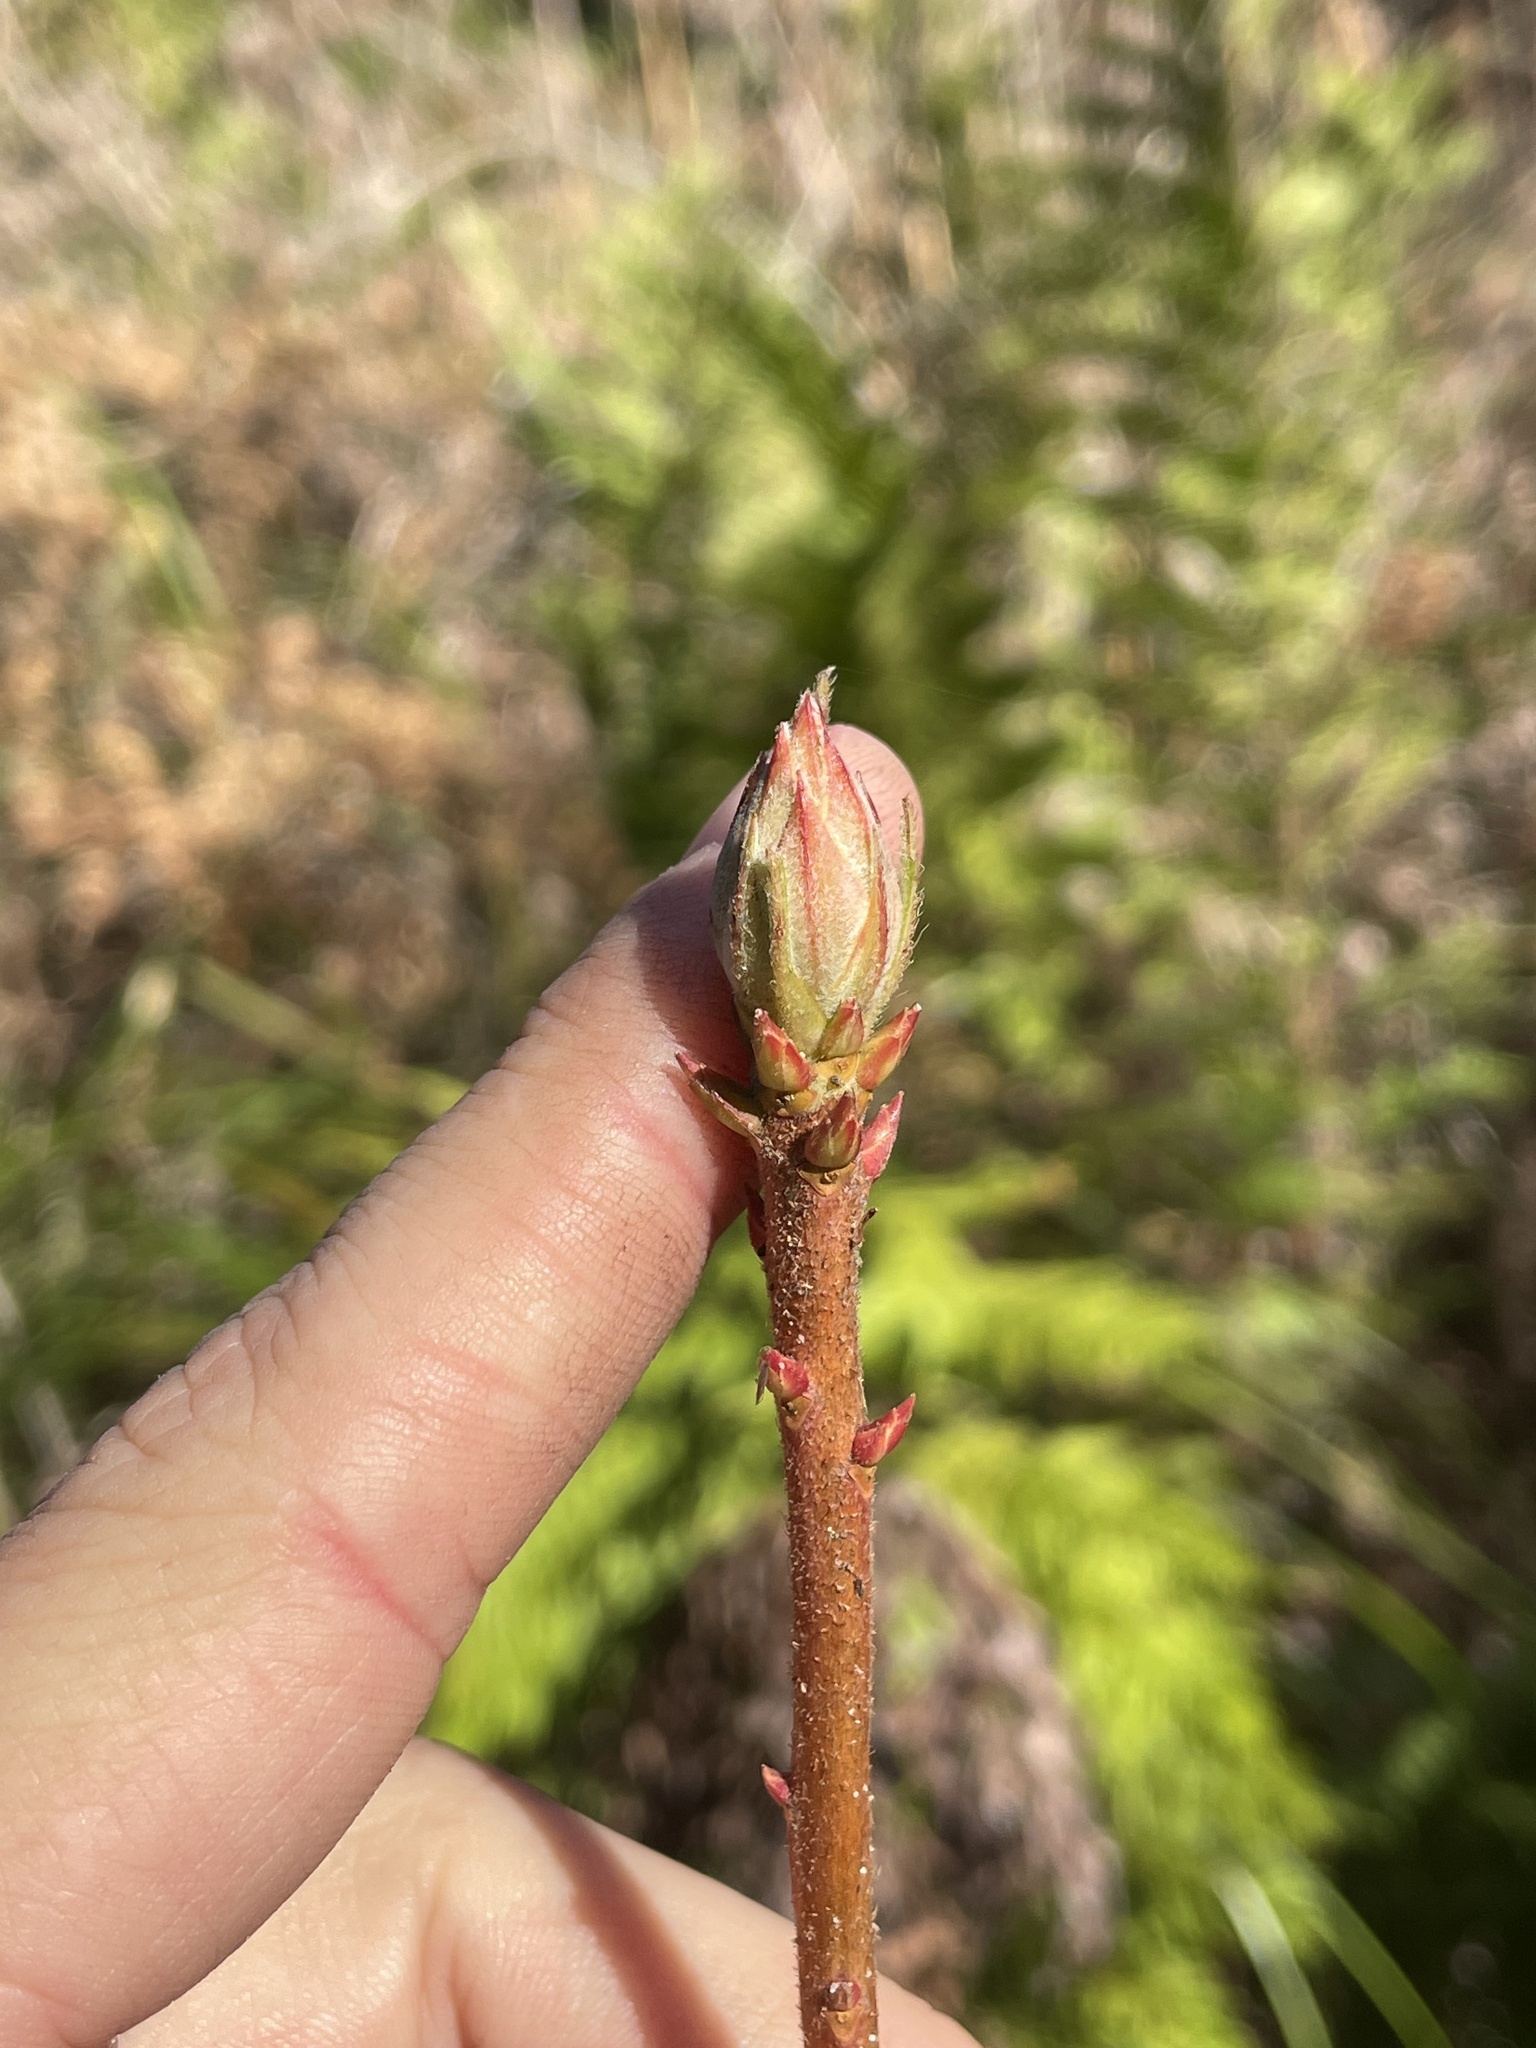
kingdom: Plantae
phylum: Tracheophyta
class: Magnoliopsida
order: Ericales
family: Ericaceae
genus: Rhododendron
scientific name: Rhododendron occidentale
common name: Western azalea
